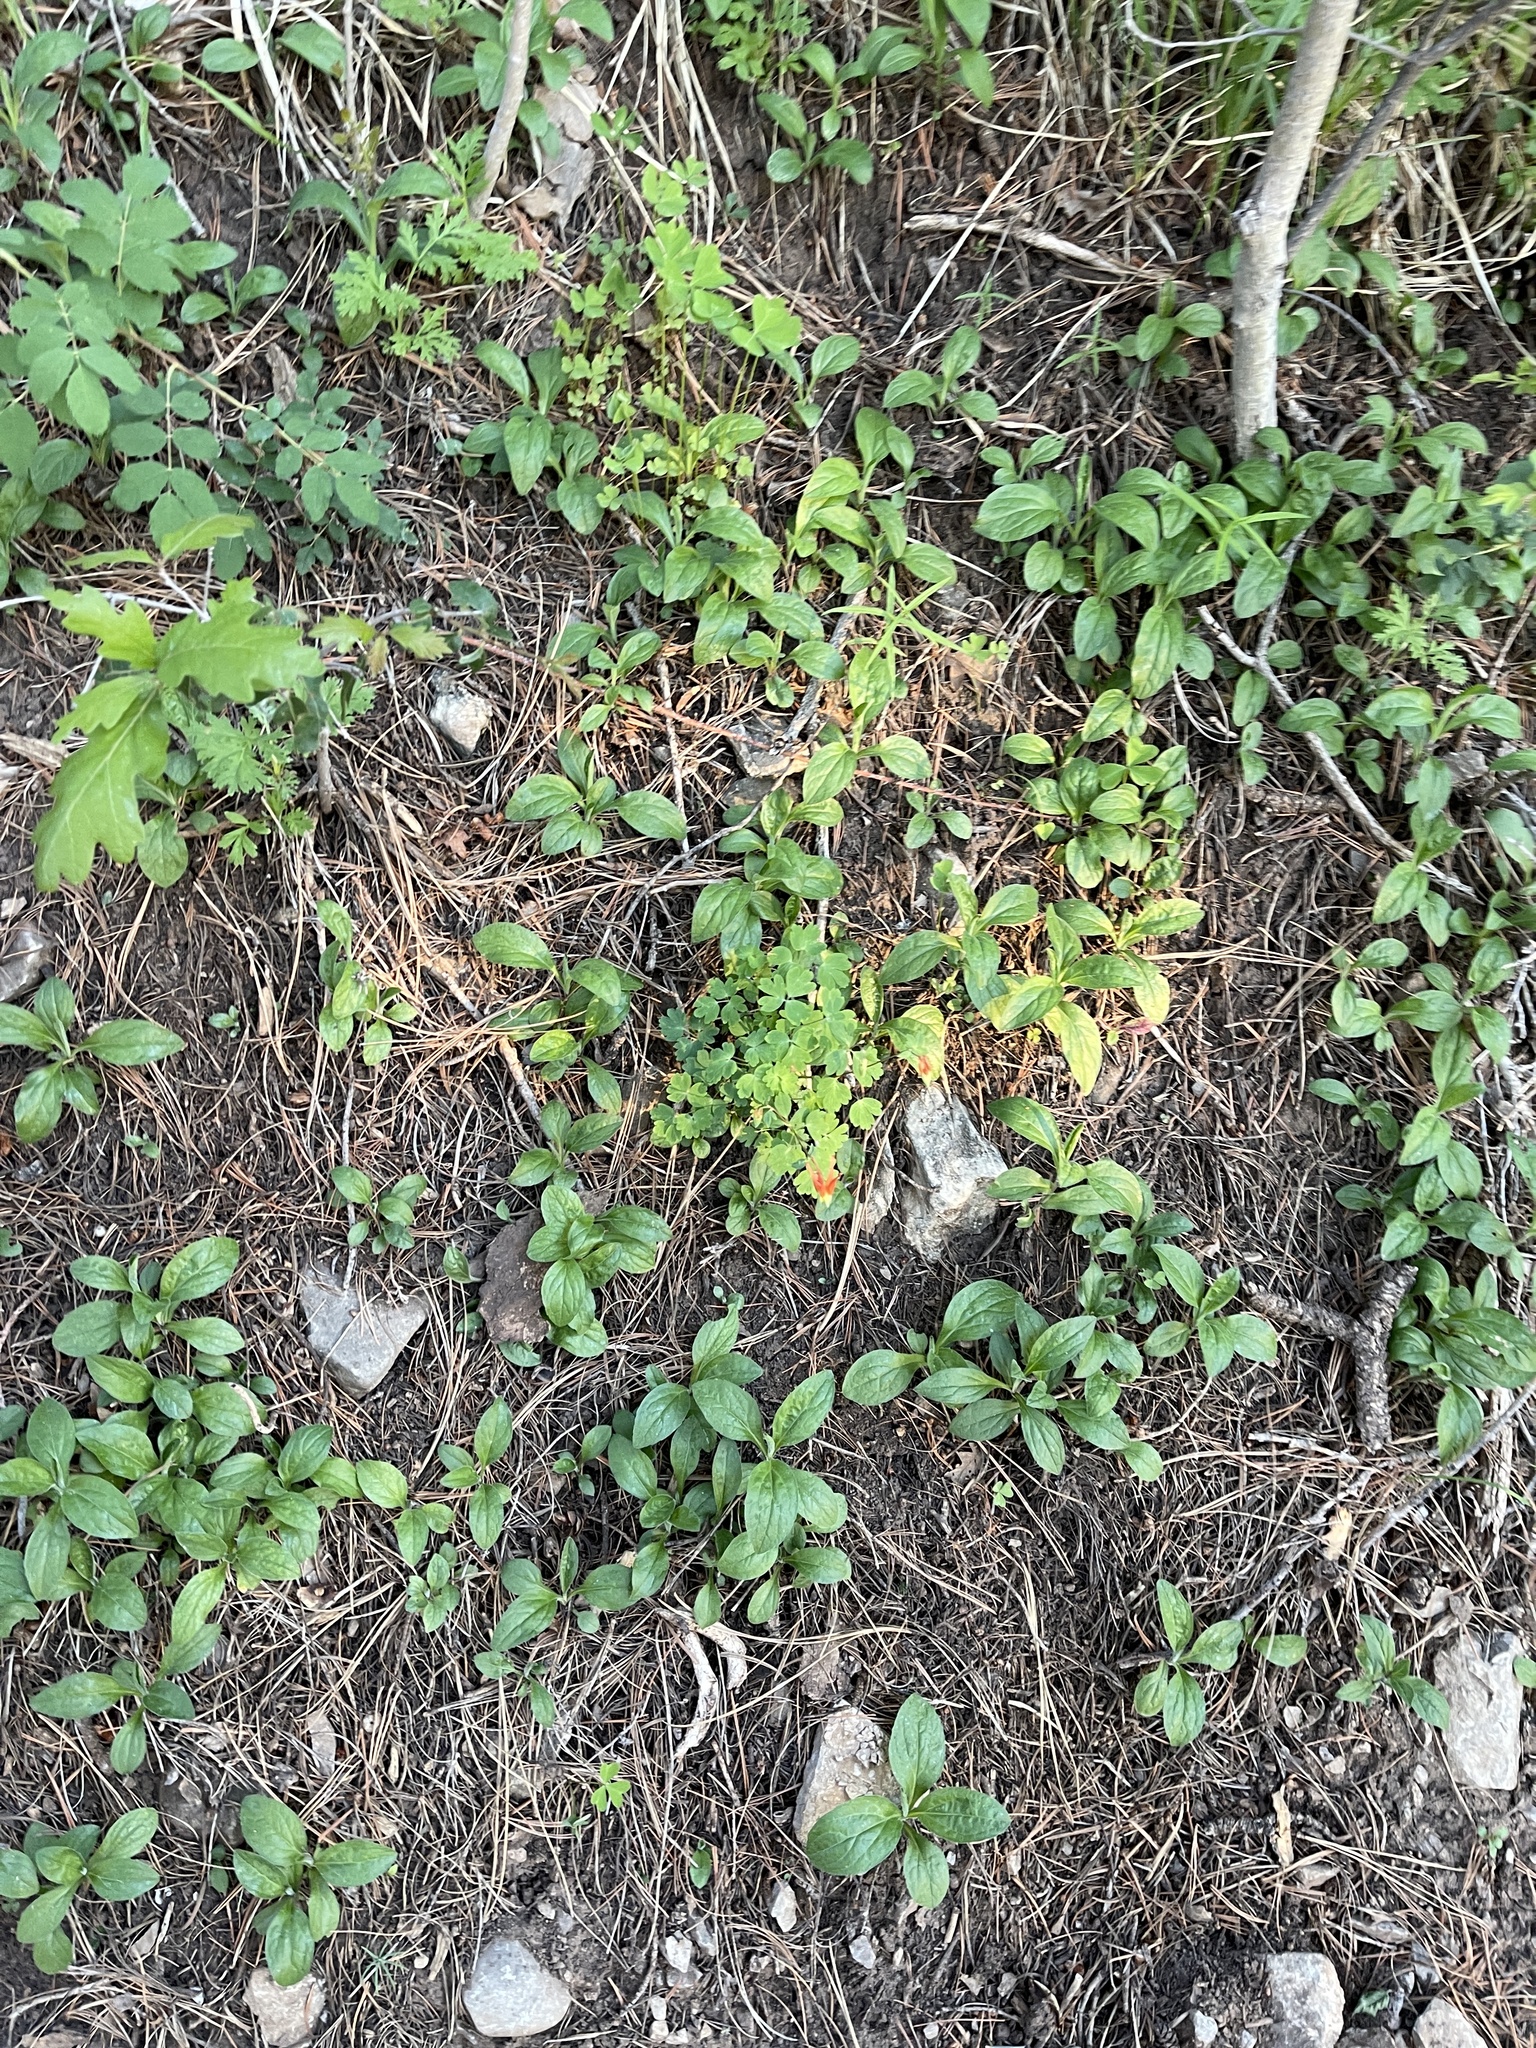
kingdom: Plantae
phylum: Tracheophyta
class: Magnoliopsida
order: Ranunculales
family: Ranunculaceae
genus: Aquilegia
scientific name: Aquilegia elegantula
